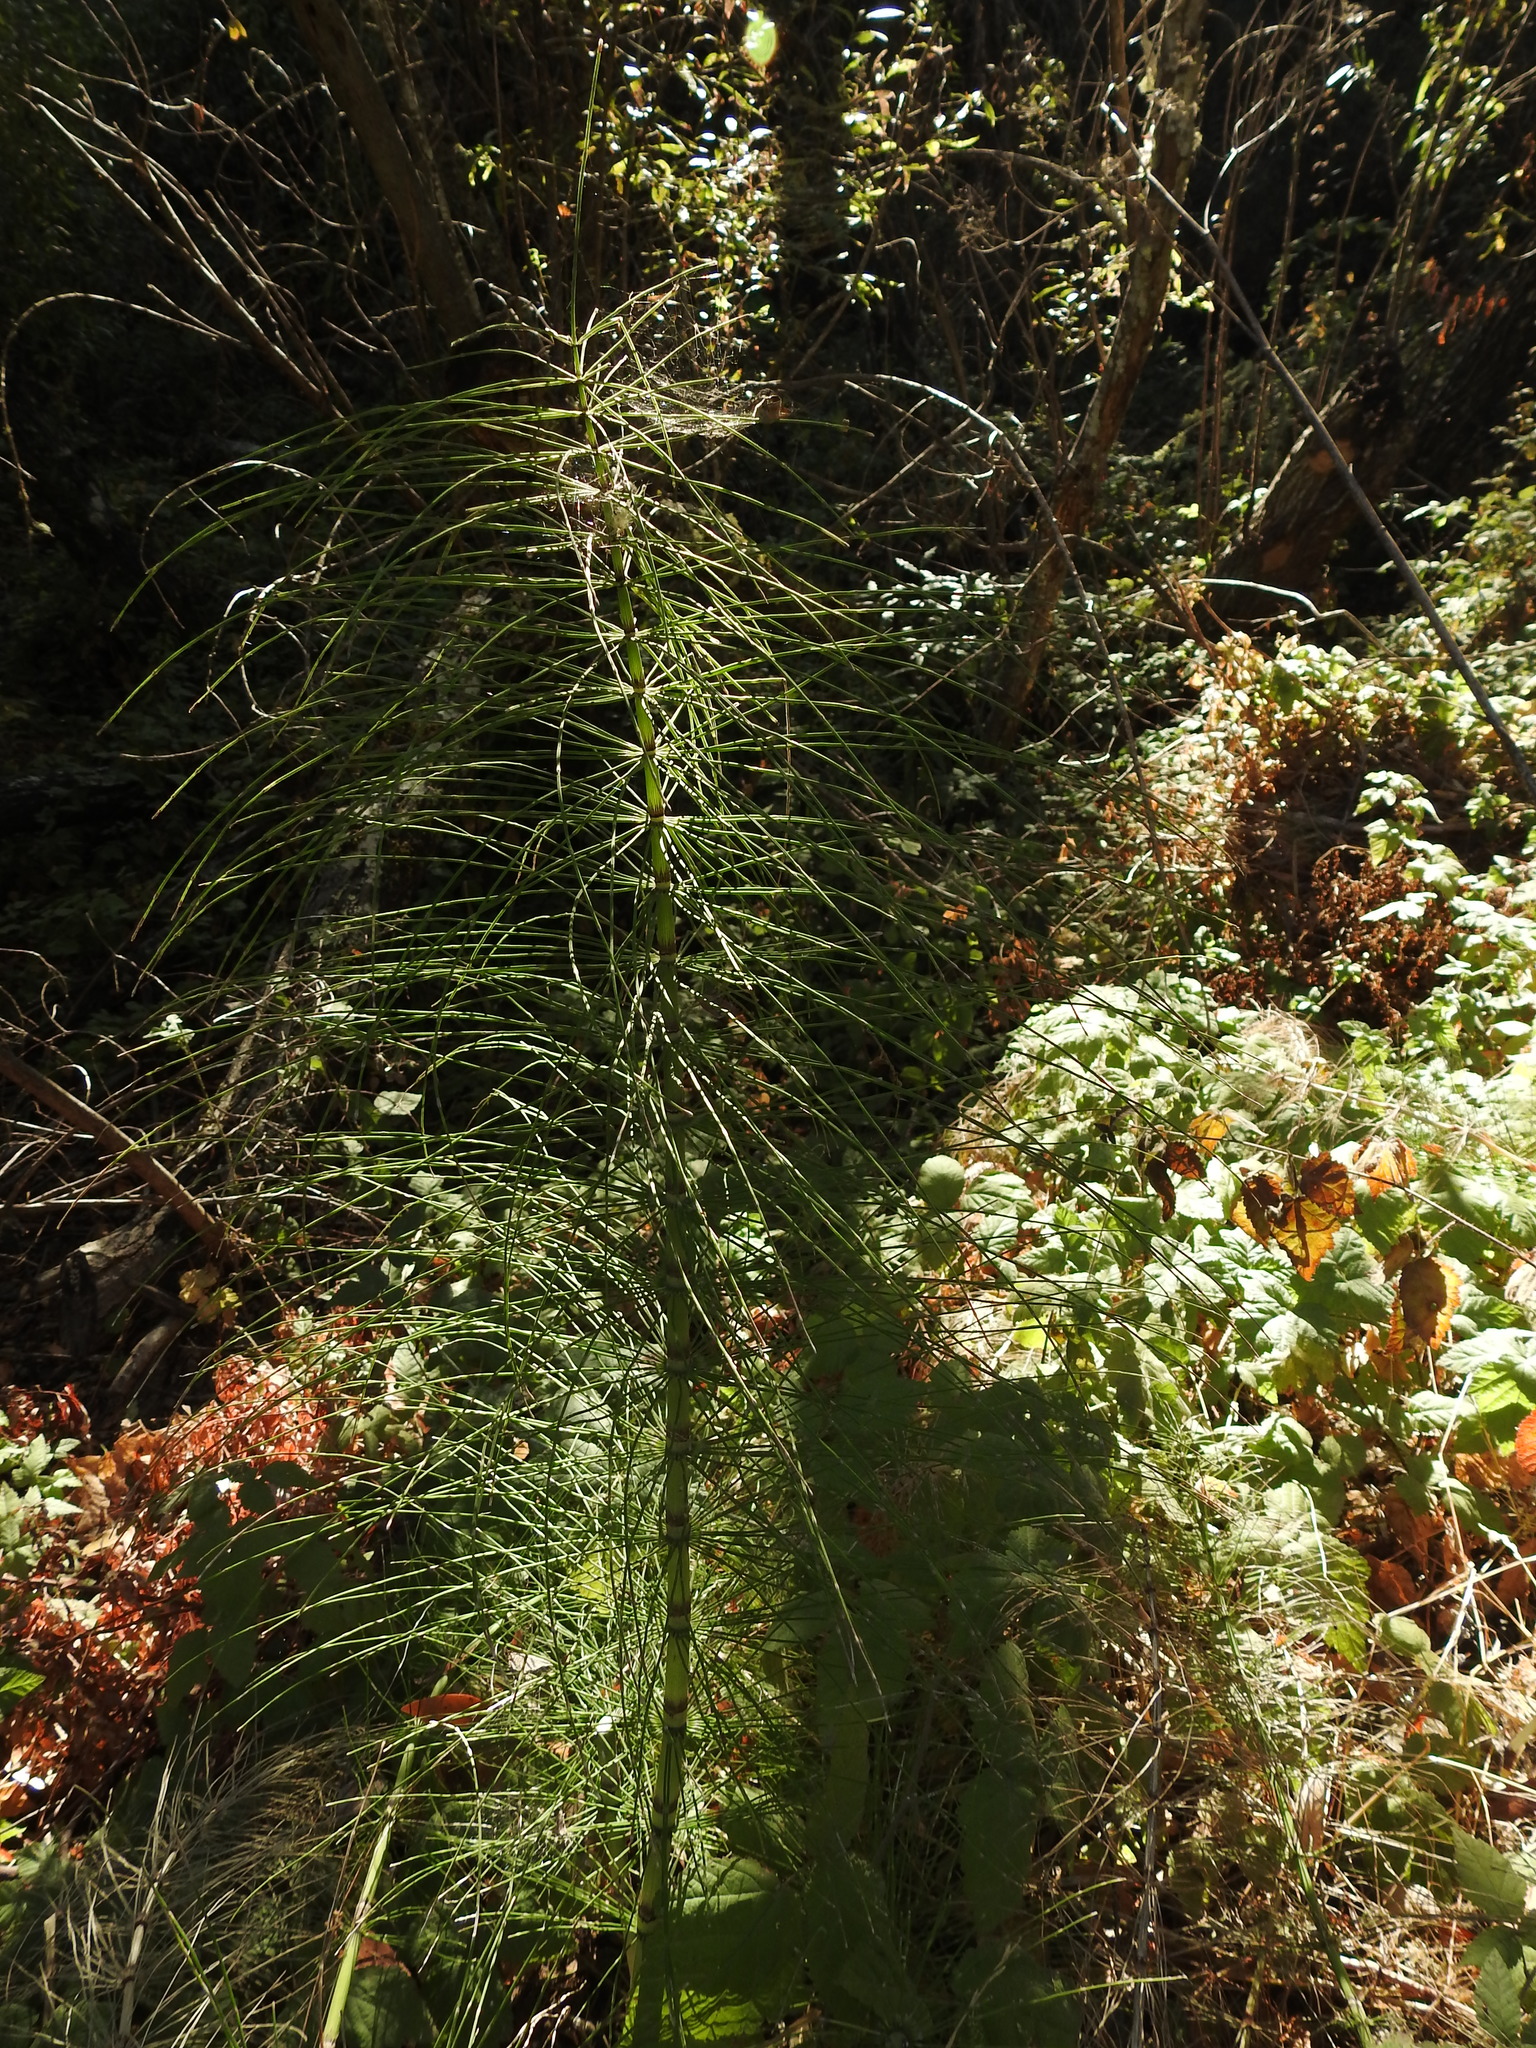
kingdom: Plantae
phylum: Tracheophyta
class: Polypodiopsida
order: Equisetales
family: Equisetaceae
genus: Equisetum
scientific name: Equisetum telmateia
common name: Great horsetail
